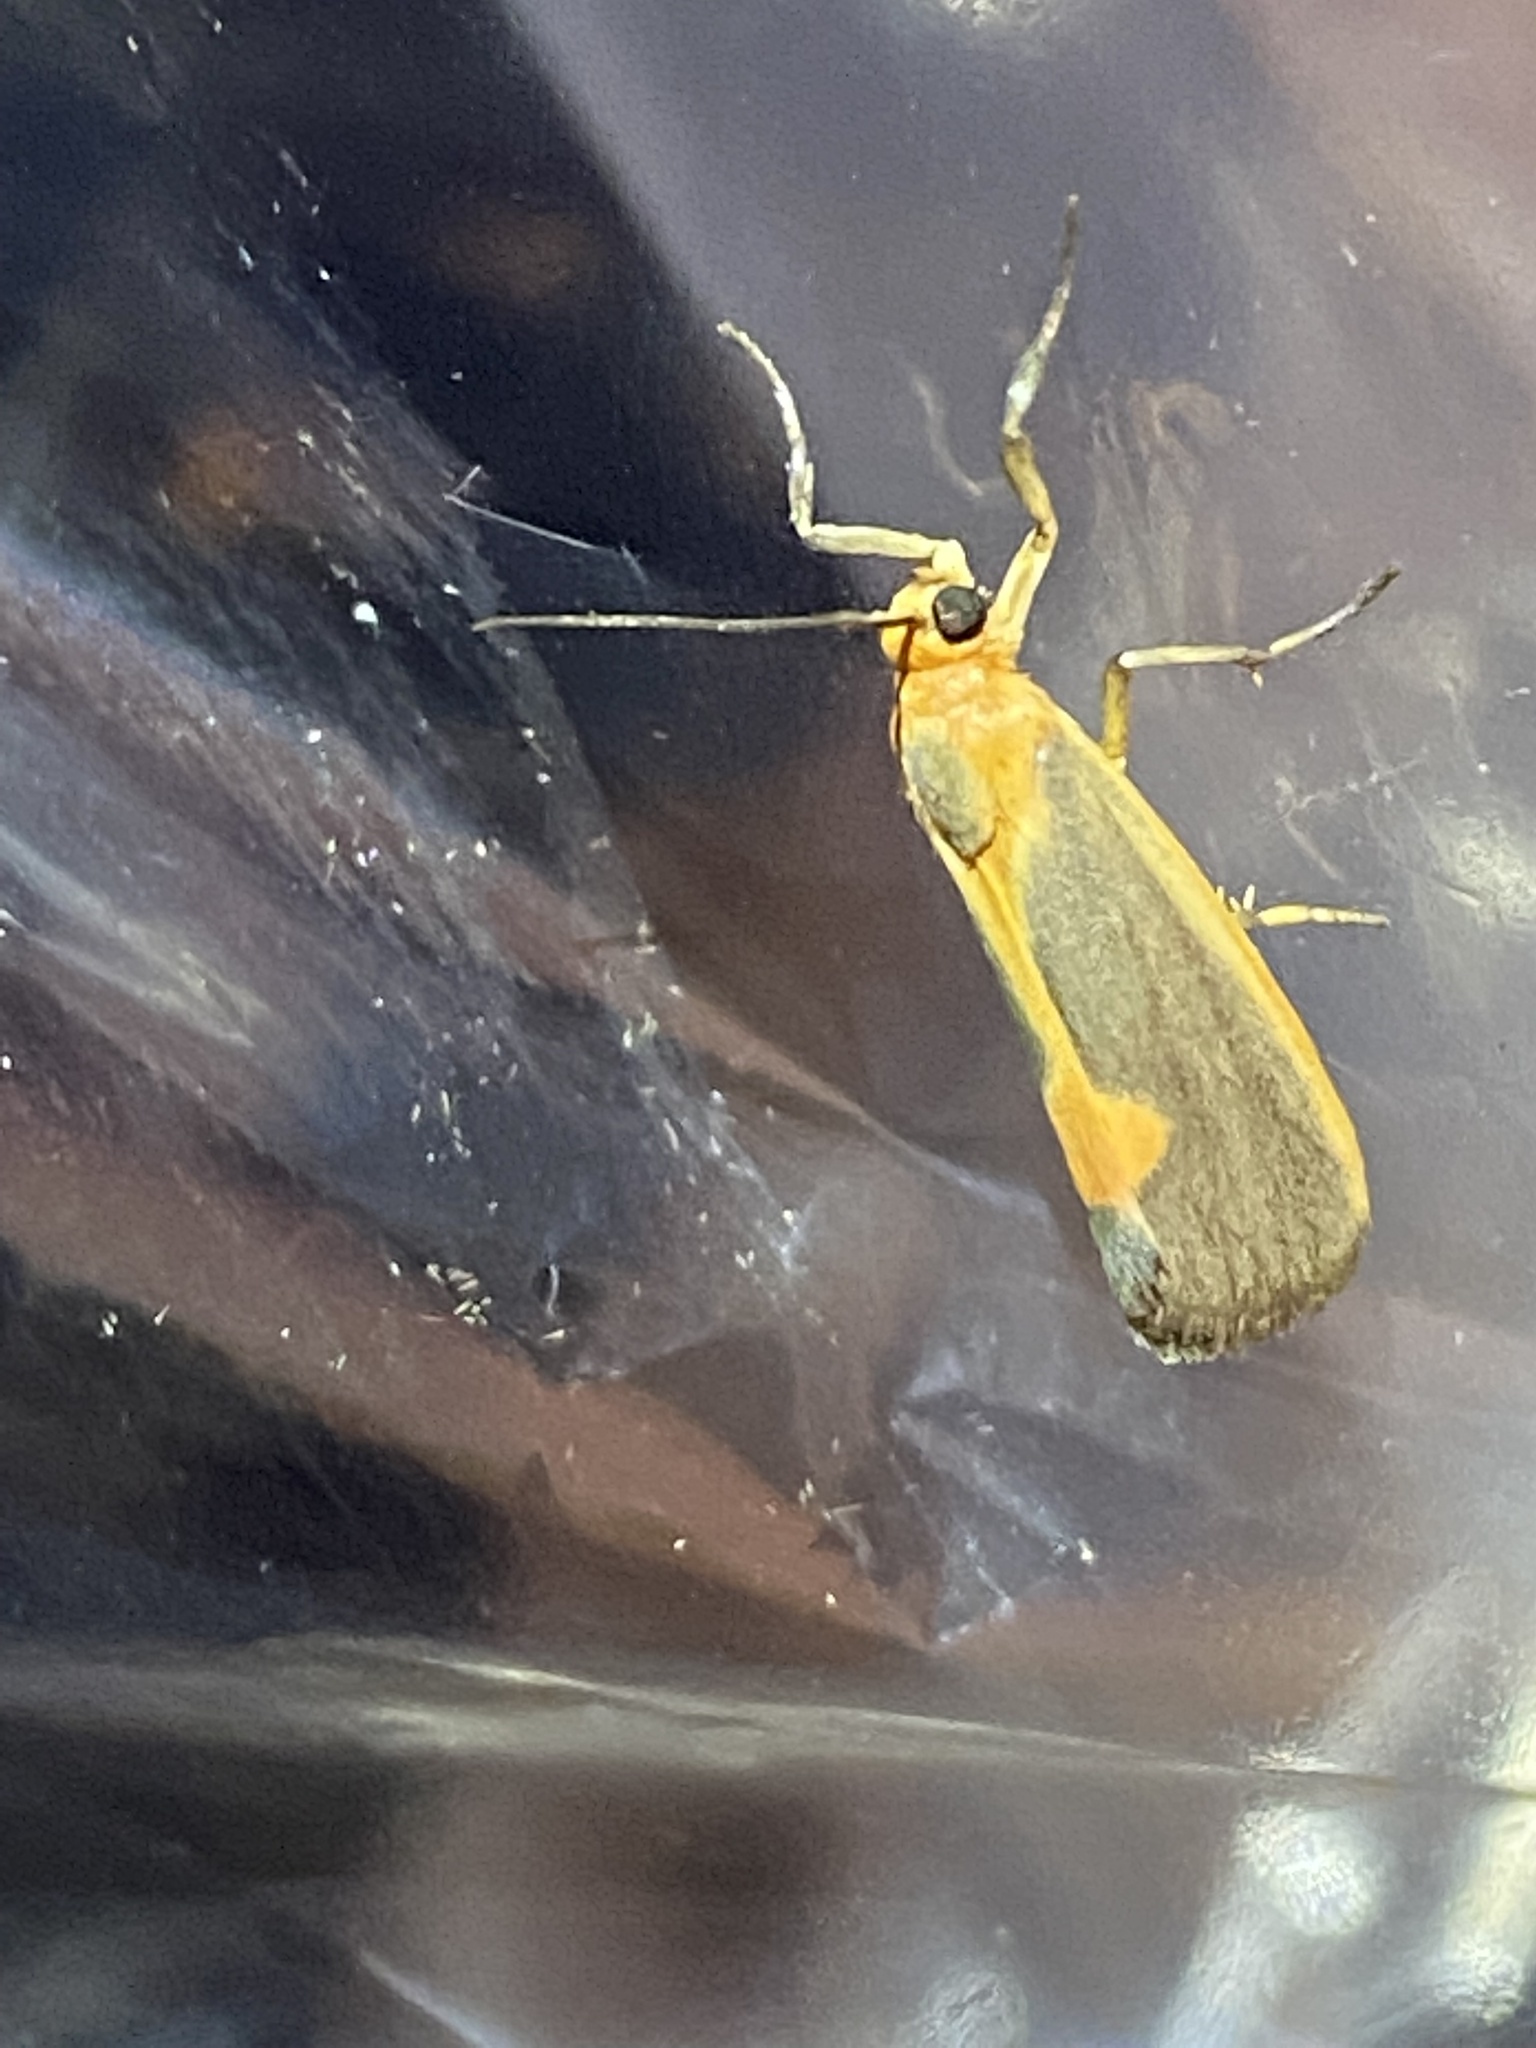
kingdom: Animalia
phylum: Arthropoda
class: Insecta
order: Lepidoptera
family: Erebidae
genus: Cisthene
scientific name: Cisthene plumbea
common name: Lead colored lichen moth
